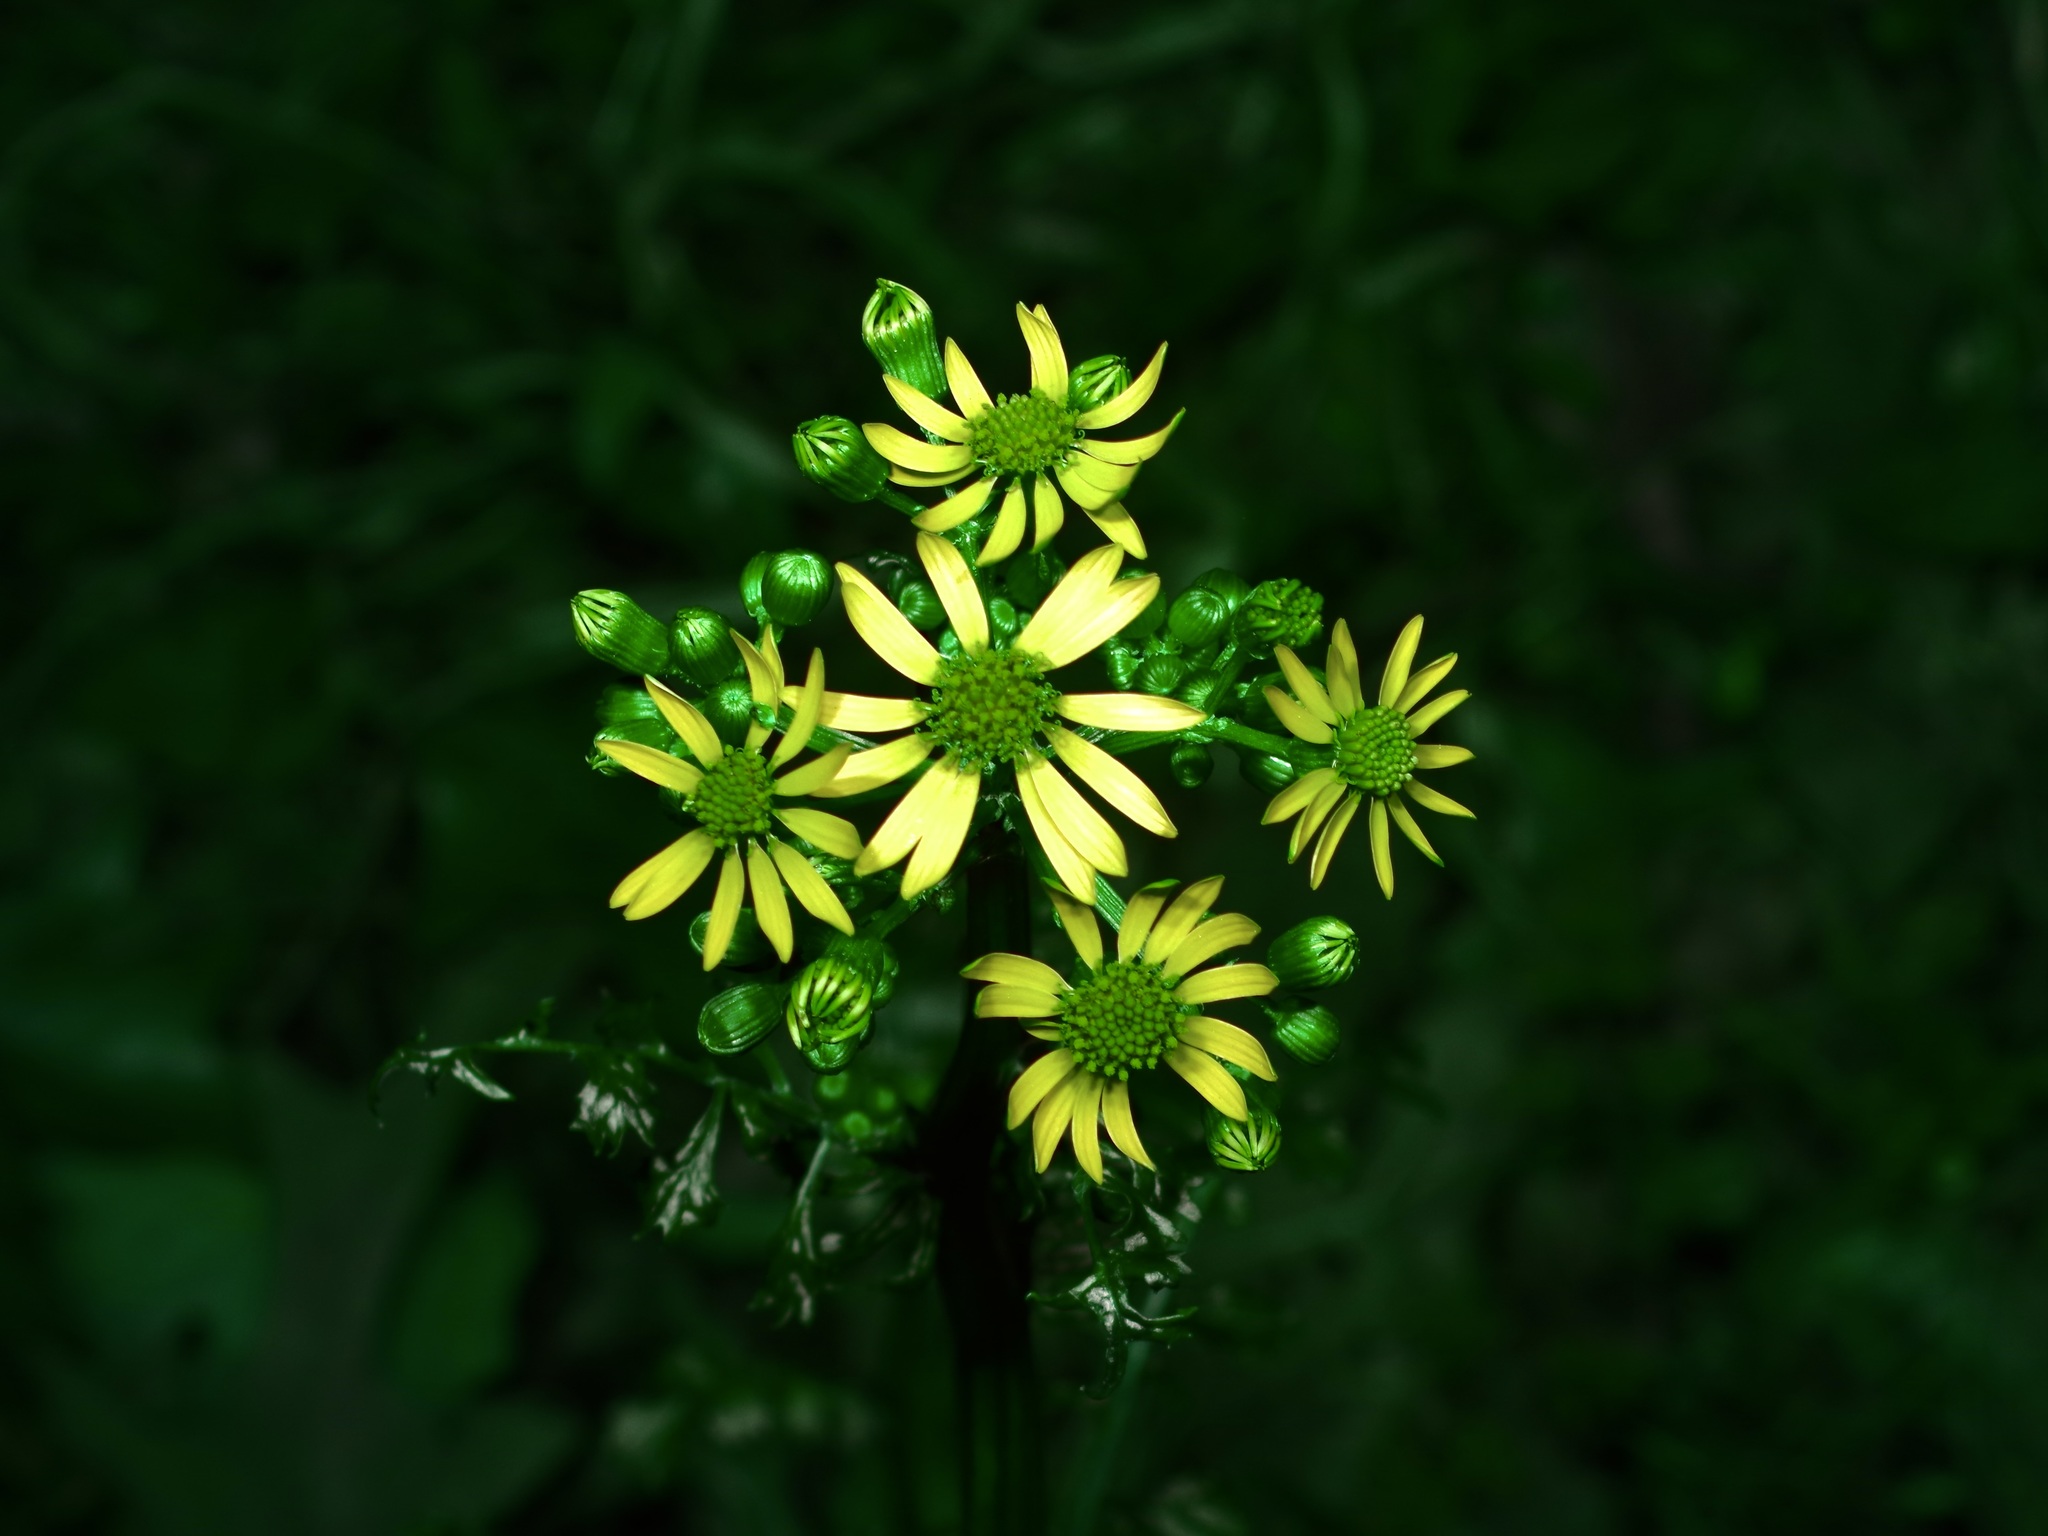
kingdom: Plantae
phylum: Tracheophyta
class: Magnoliopsida
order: Asterales
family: Asteraceae
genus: Packera
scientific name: Packera obovata
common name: Round-leaf ragwort
